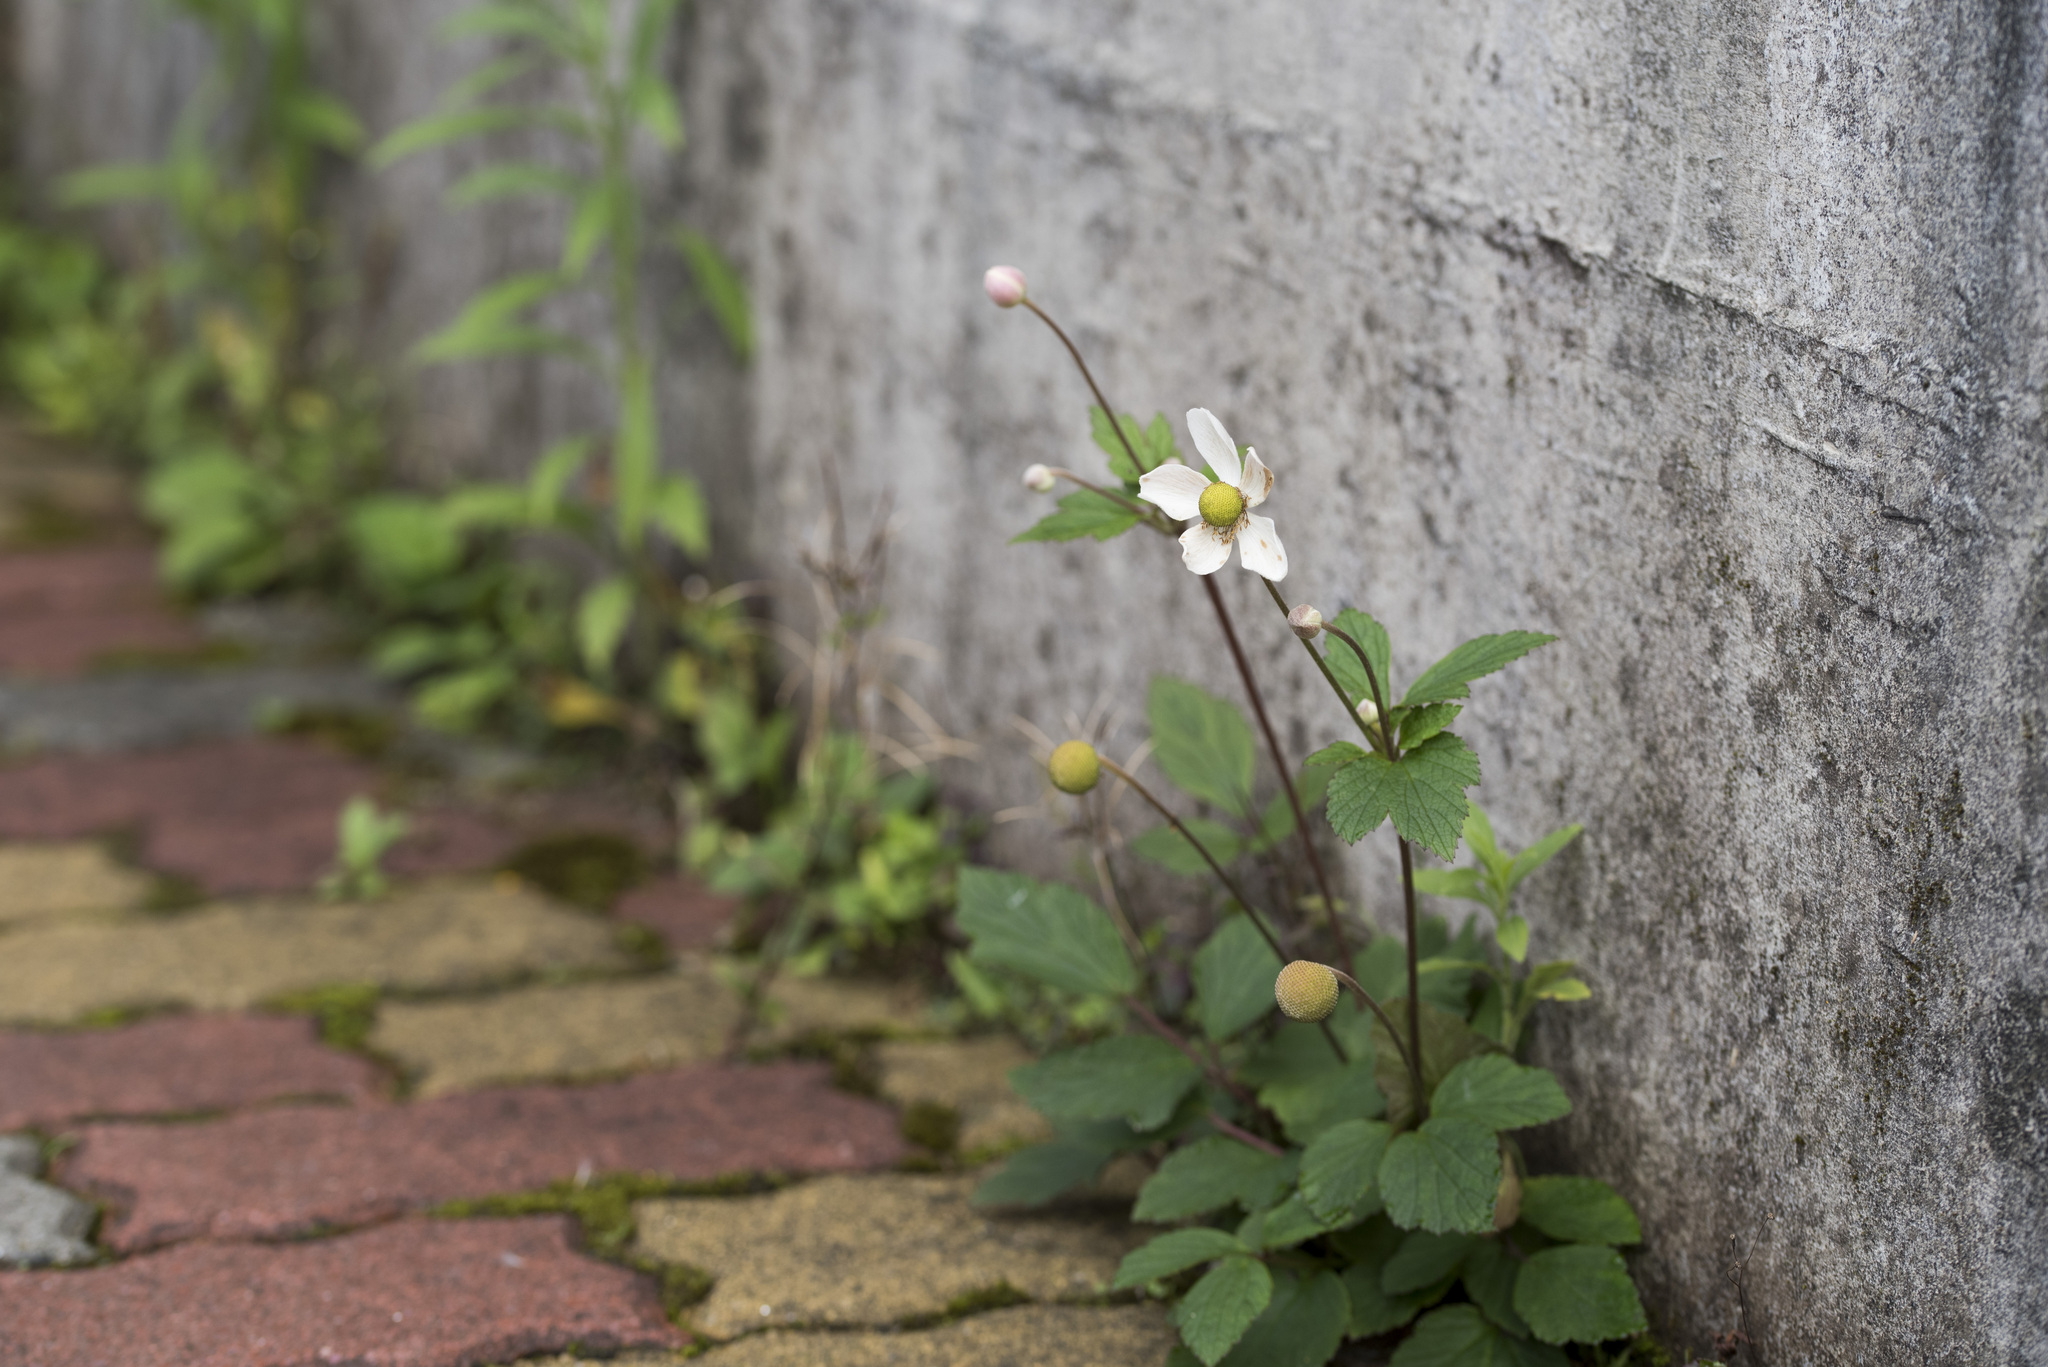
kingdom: Plantae
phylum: Tracheophyta
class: Magnoliopsida
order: Ranunculales
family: Ranunculaceae
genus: Eriocapitella
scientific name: Eriocapitella vitifolia
